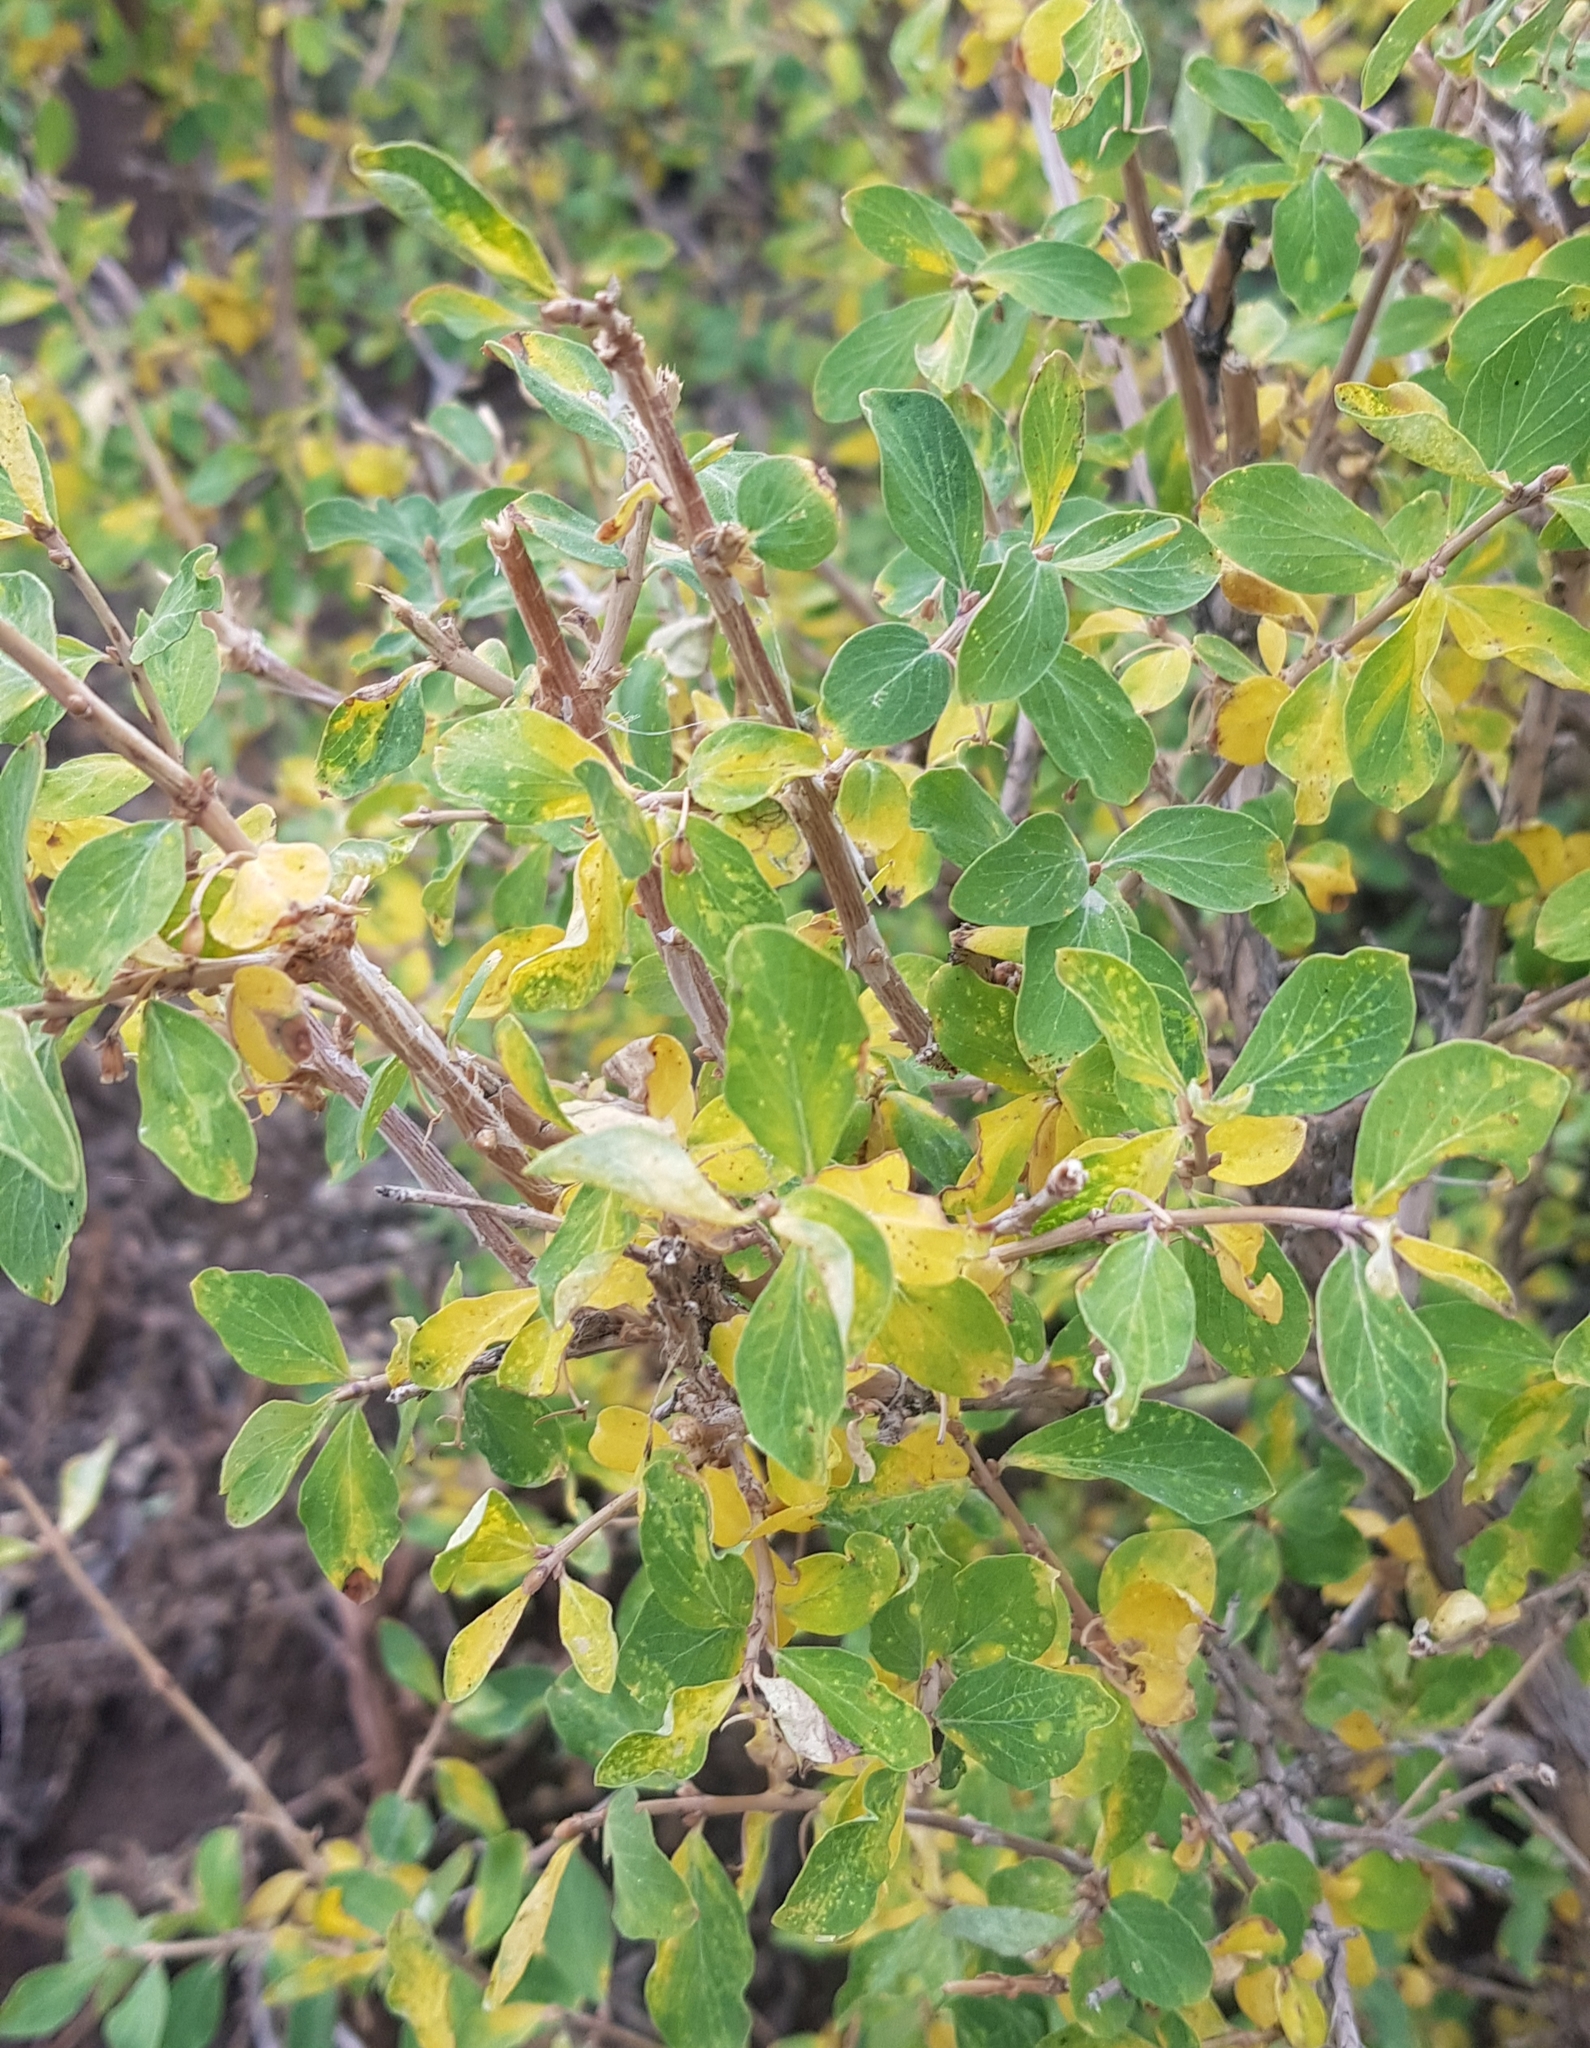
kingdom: Plantae
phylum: Tracheophyta
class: Magnoliopsida
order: Dipsacales
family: Caprifoliaceae
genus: Lonicera
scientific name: Lonicera microphylla
